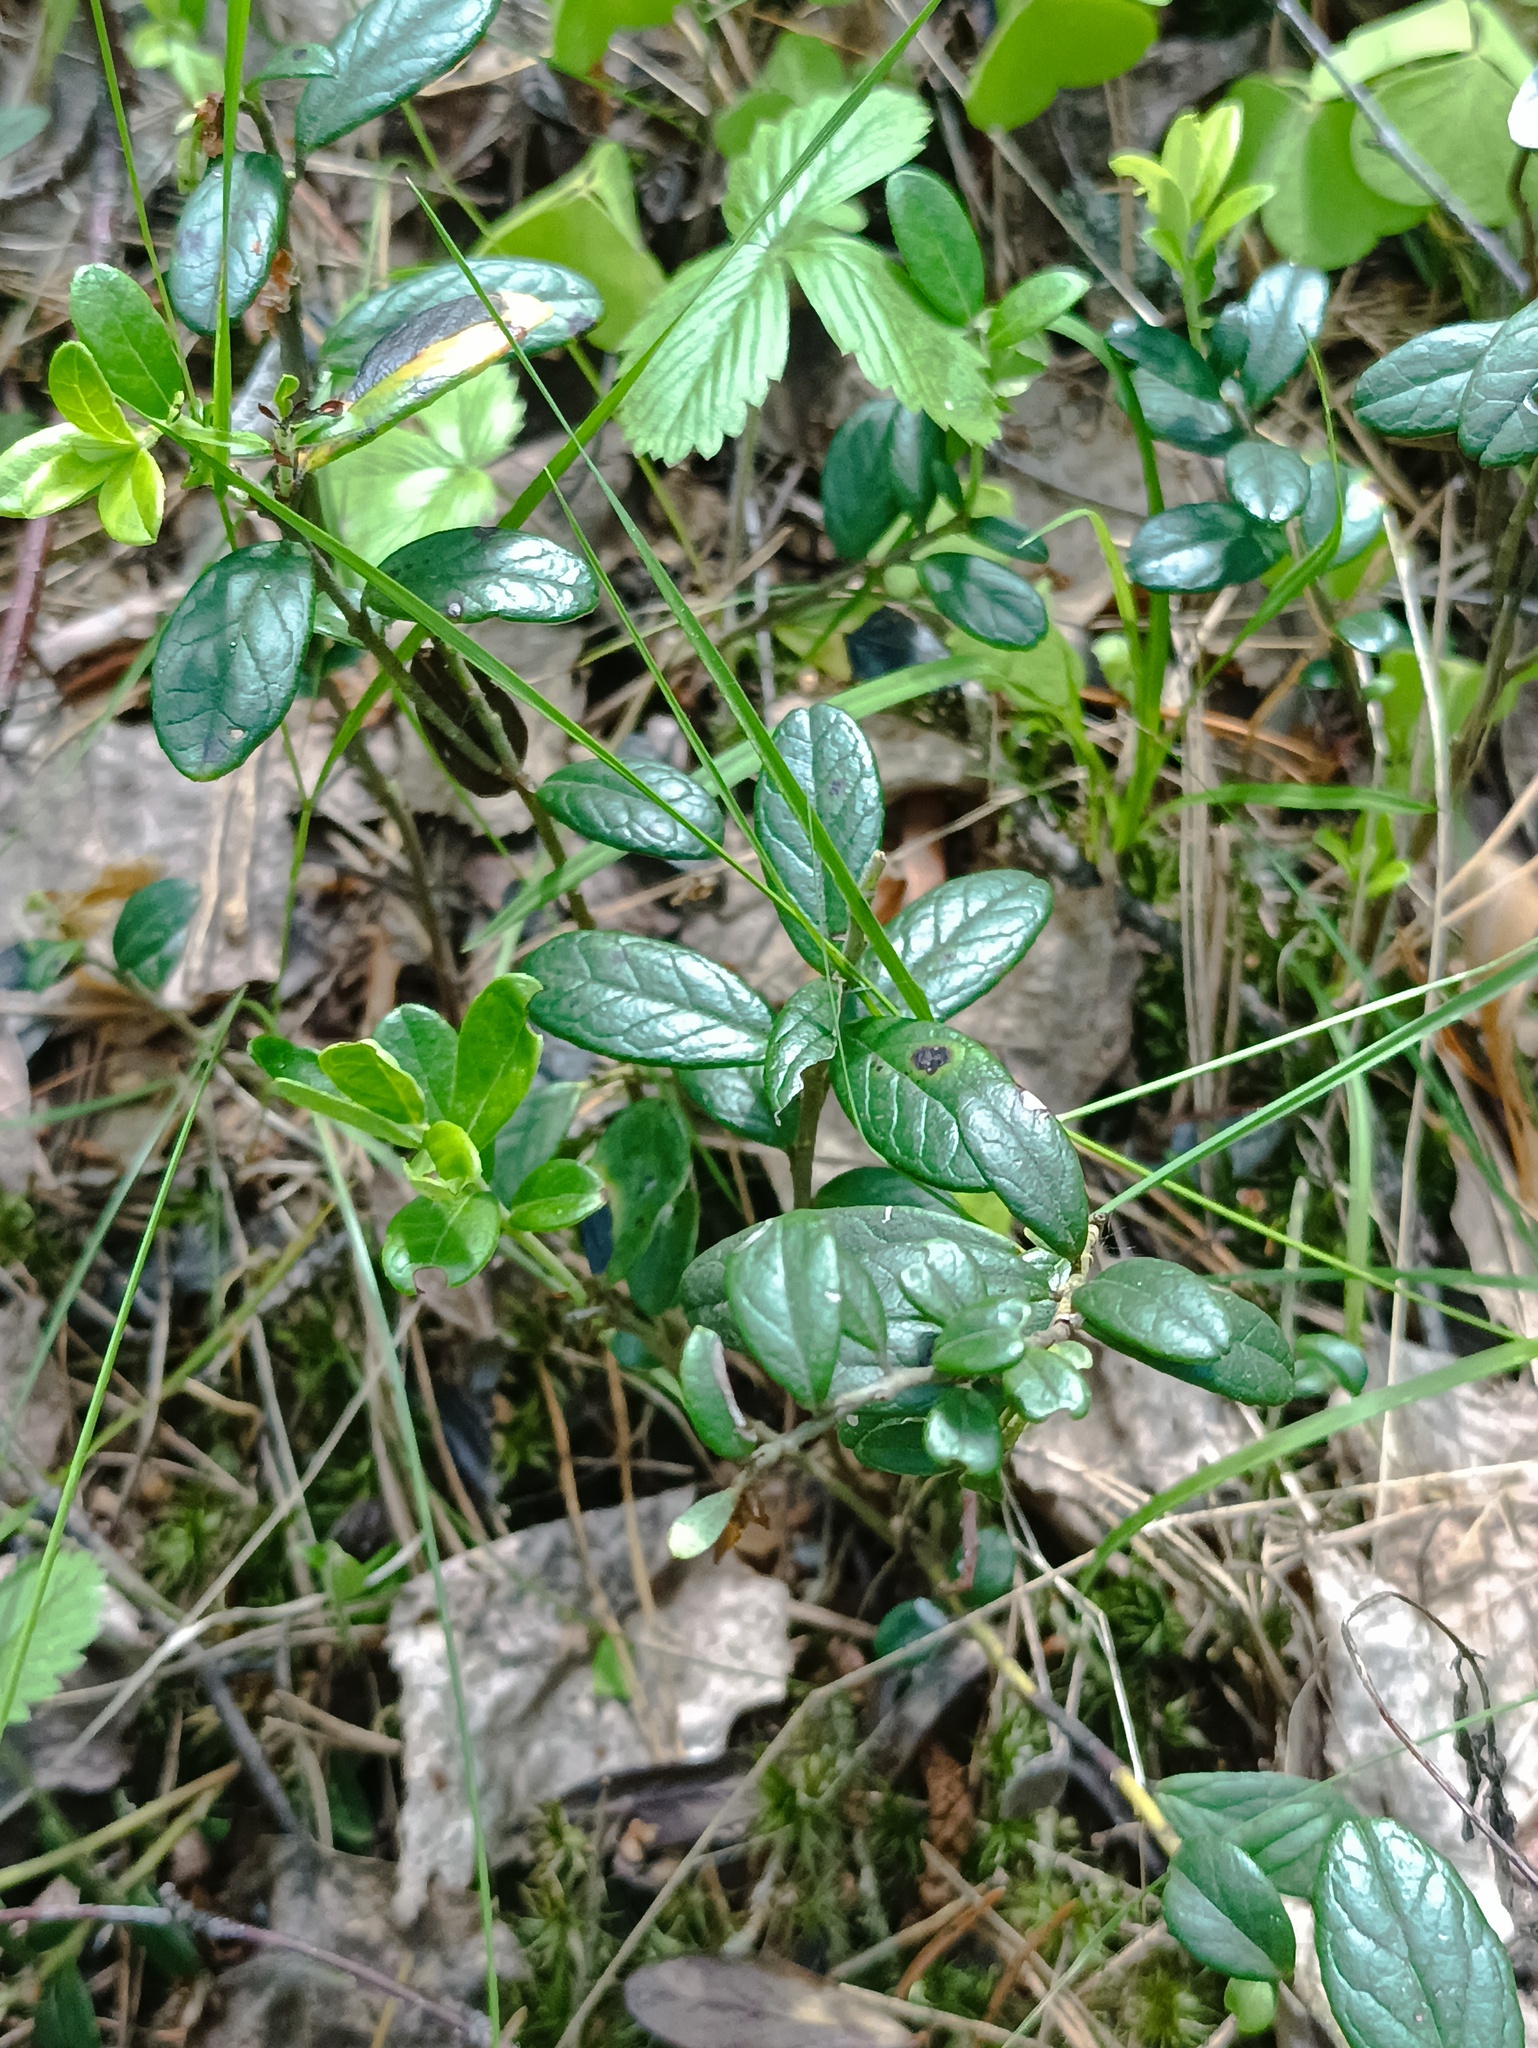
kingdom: Plantae
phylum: Tracheophyta
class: Magnoliopsida
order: Ericales
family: Ericaceae
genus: Vaccinium
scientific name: Vaccinium vitis-idaea
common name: Cowberry
